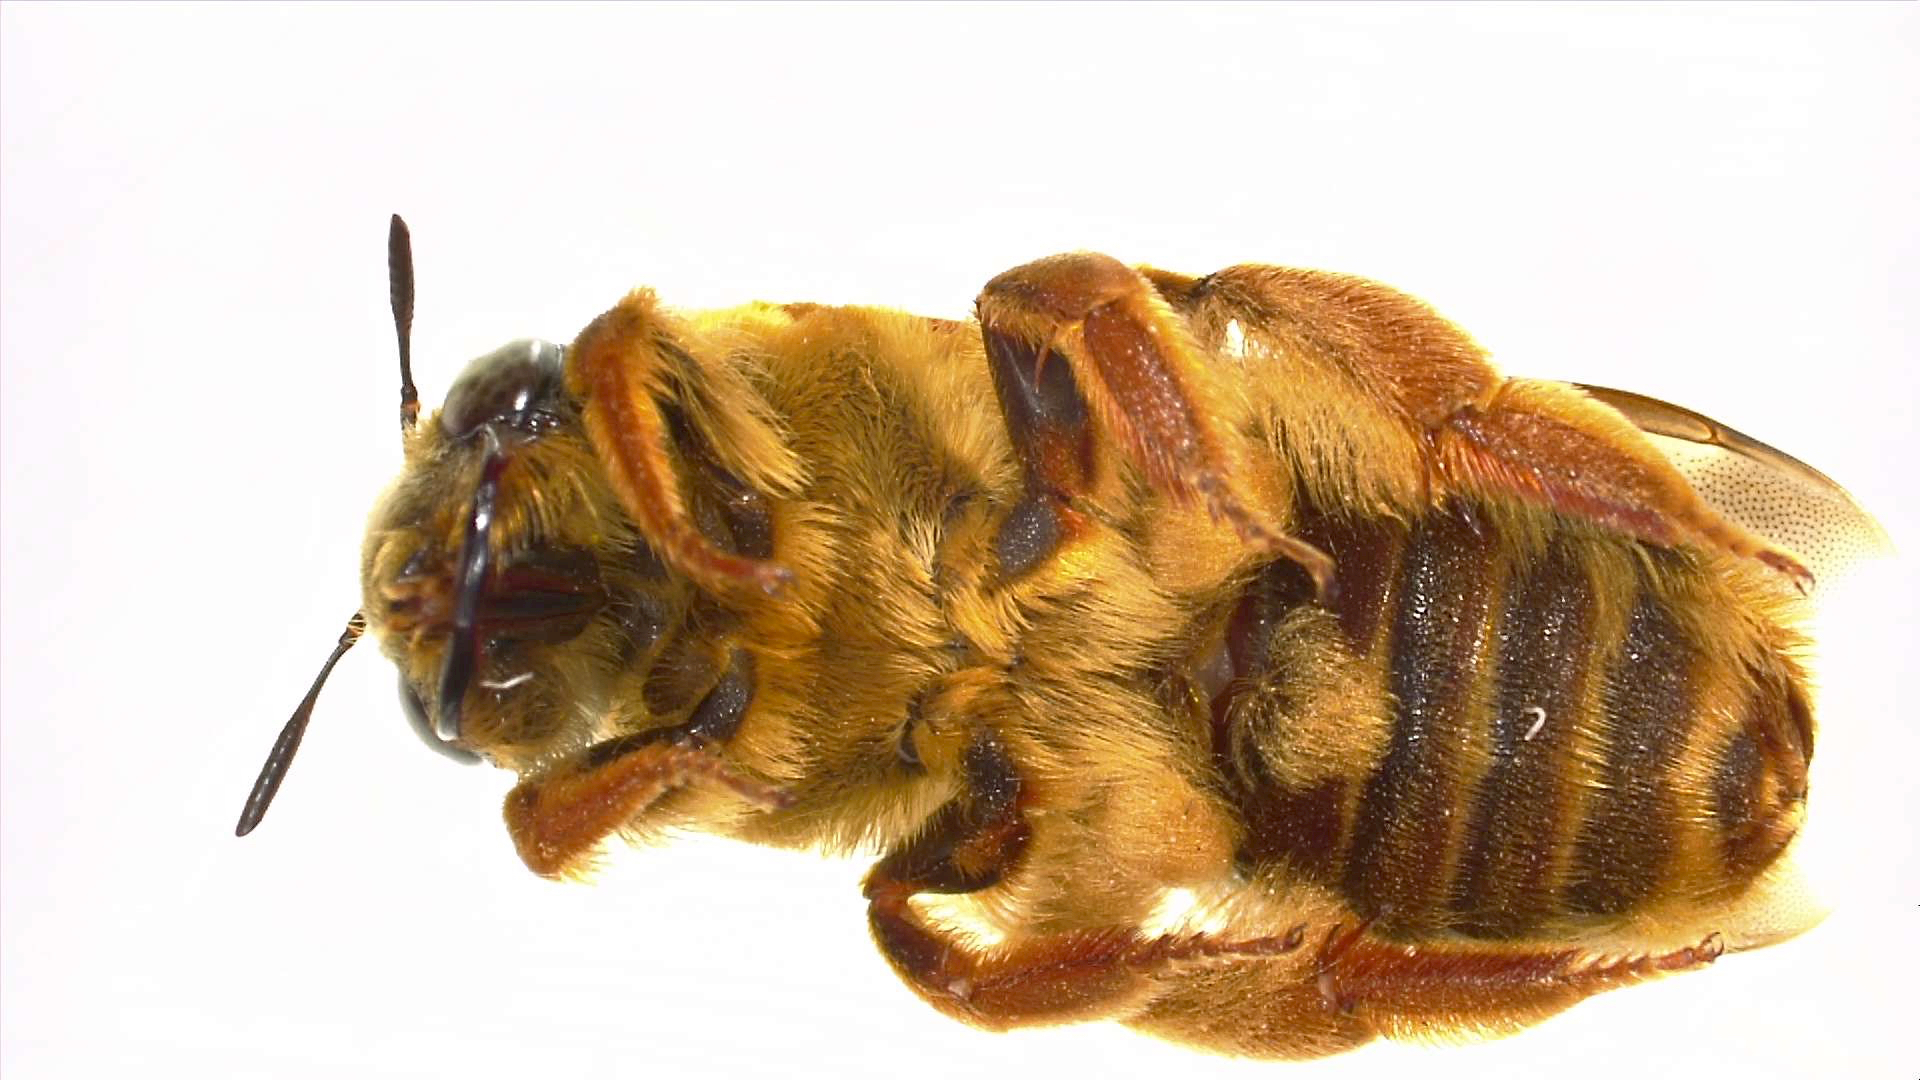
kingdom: Animalia
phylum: Arthropoda
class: Insecta
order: Hymenoptera
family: Andrenidae
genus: Protoxaea
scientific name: Protoxaea gloriosa
